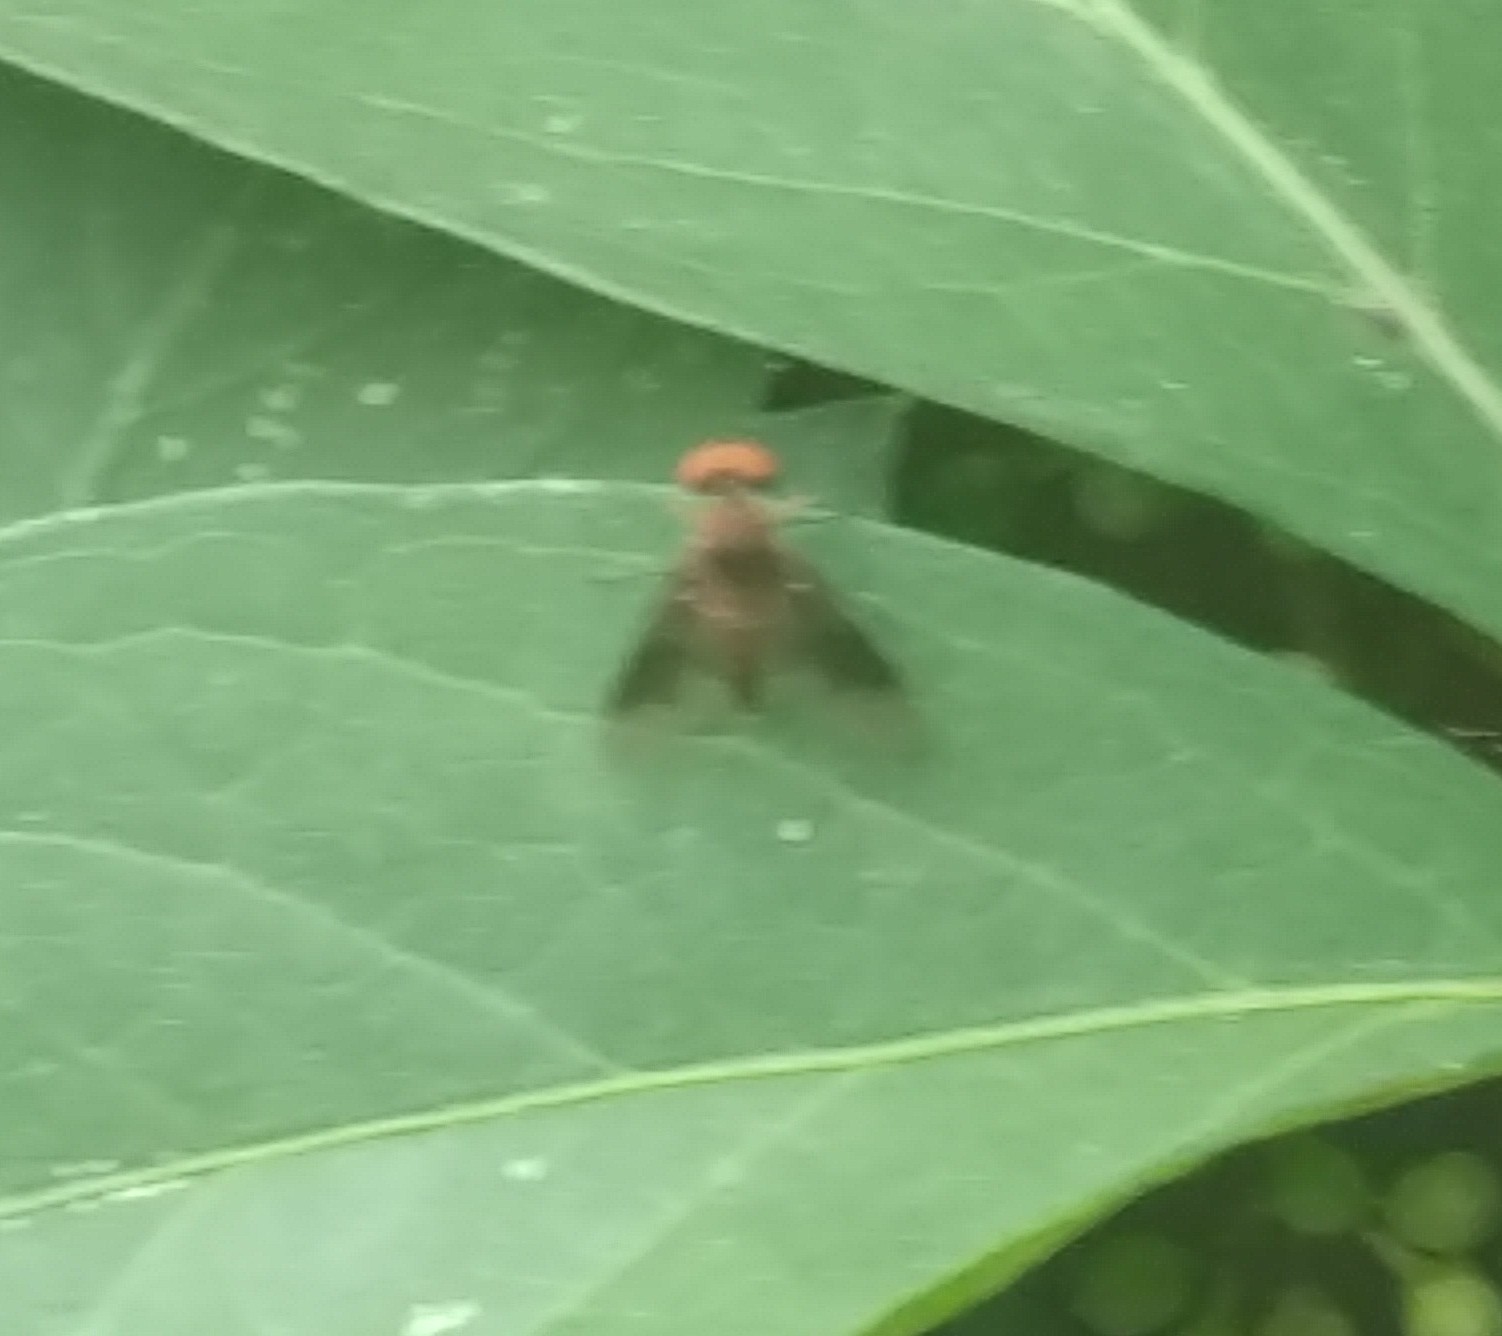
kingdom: Animalia
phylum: Arthropoda
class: Insecta
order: Diptera
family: Rhagionidae
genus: Chrysopilus
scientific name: Chrysopilus quadratus
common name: Quadrate snipe fly
